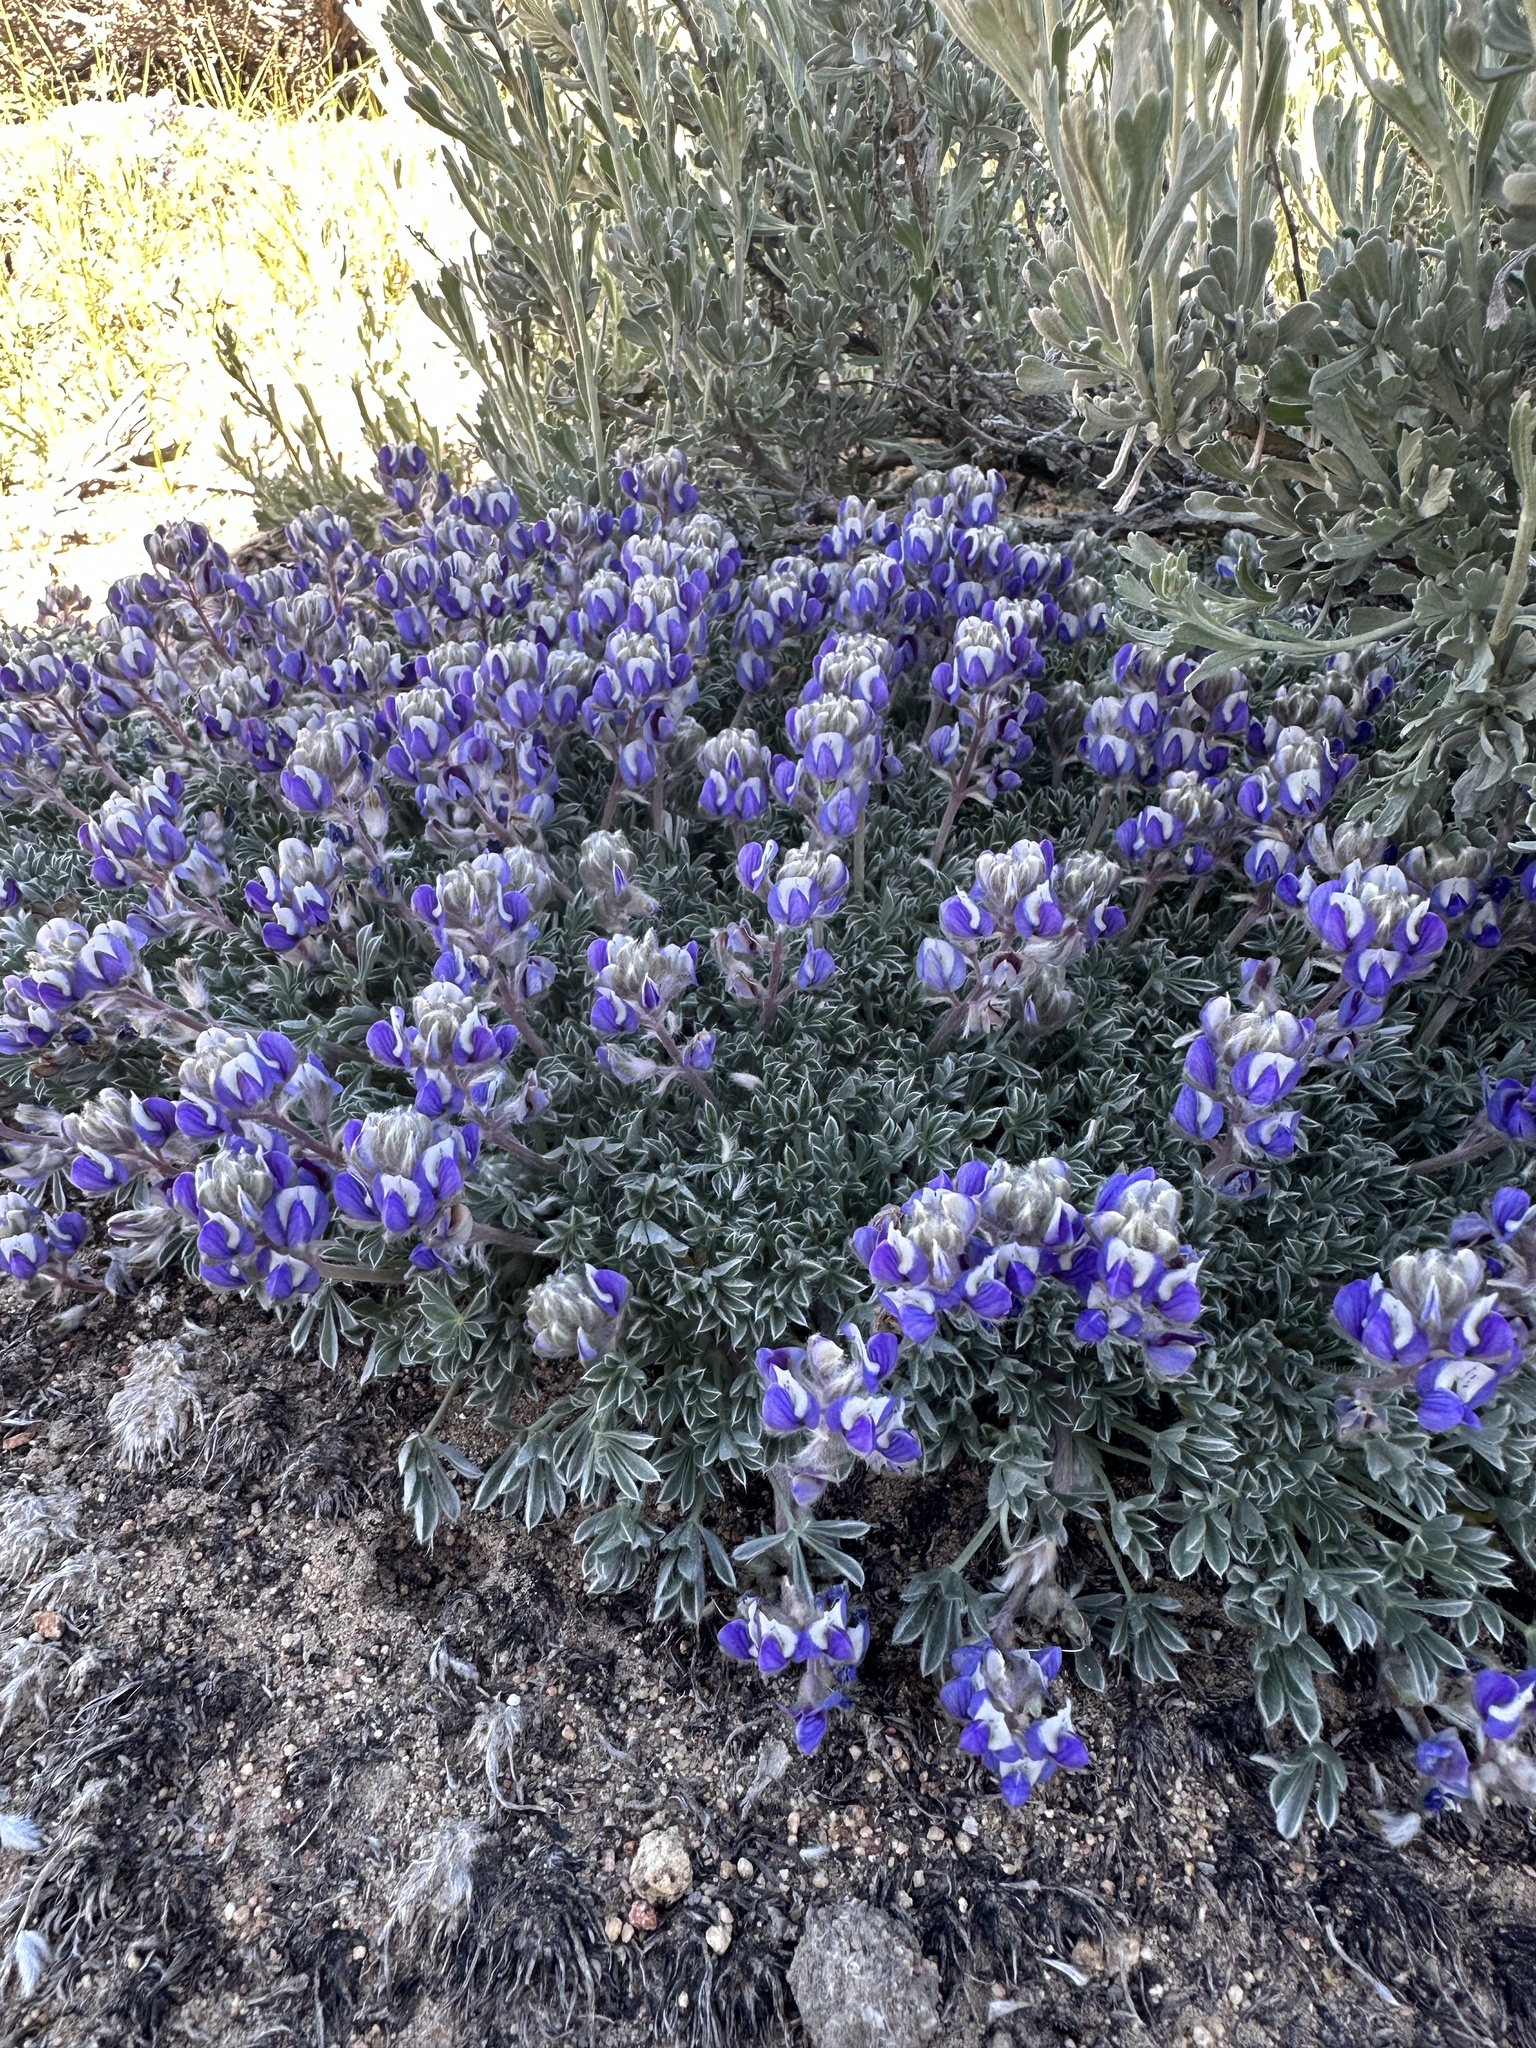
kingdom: Plantae
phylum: Tracheophyta
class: Magnoliopsida
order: Fabales
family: Fabaceae
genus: Lupinus
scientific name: Lupinus breweri
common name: Brewer's lupine
